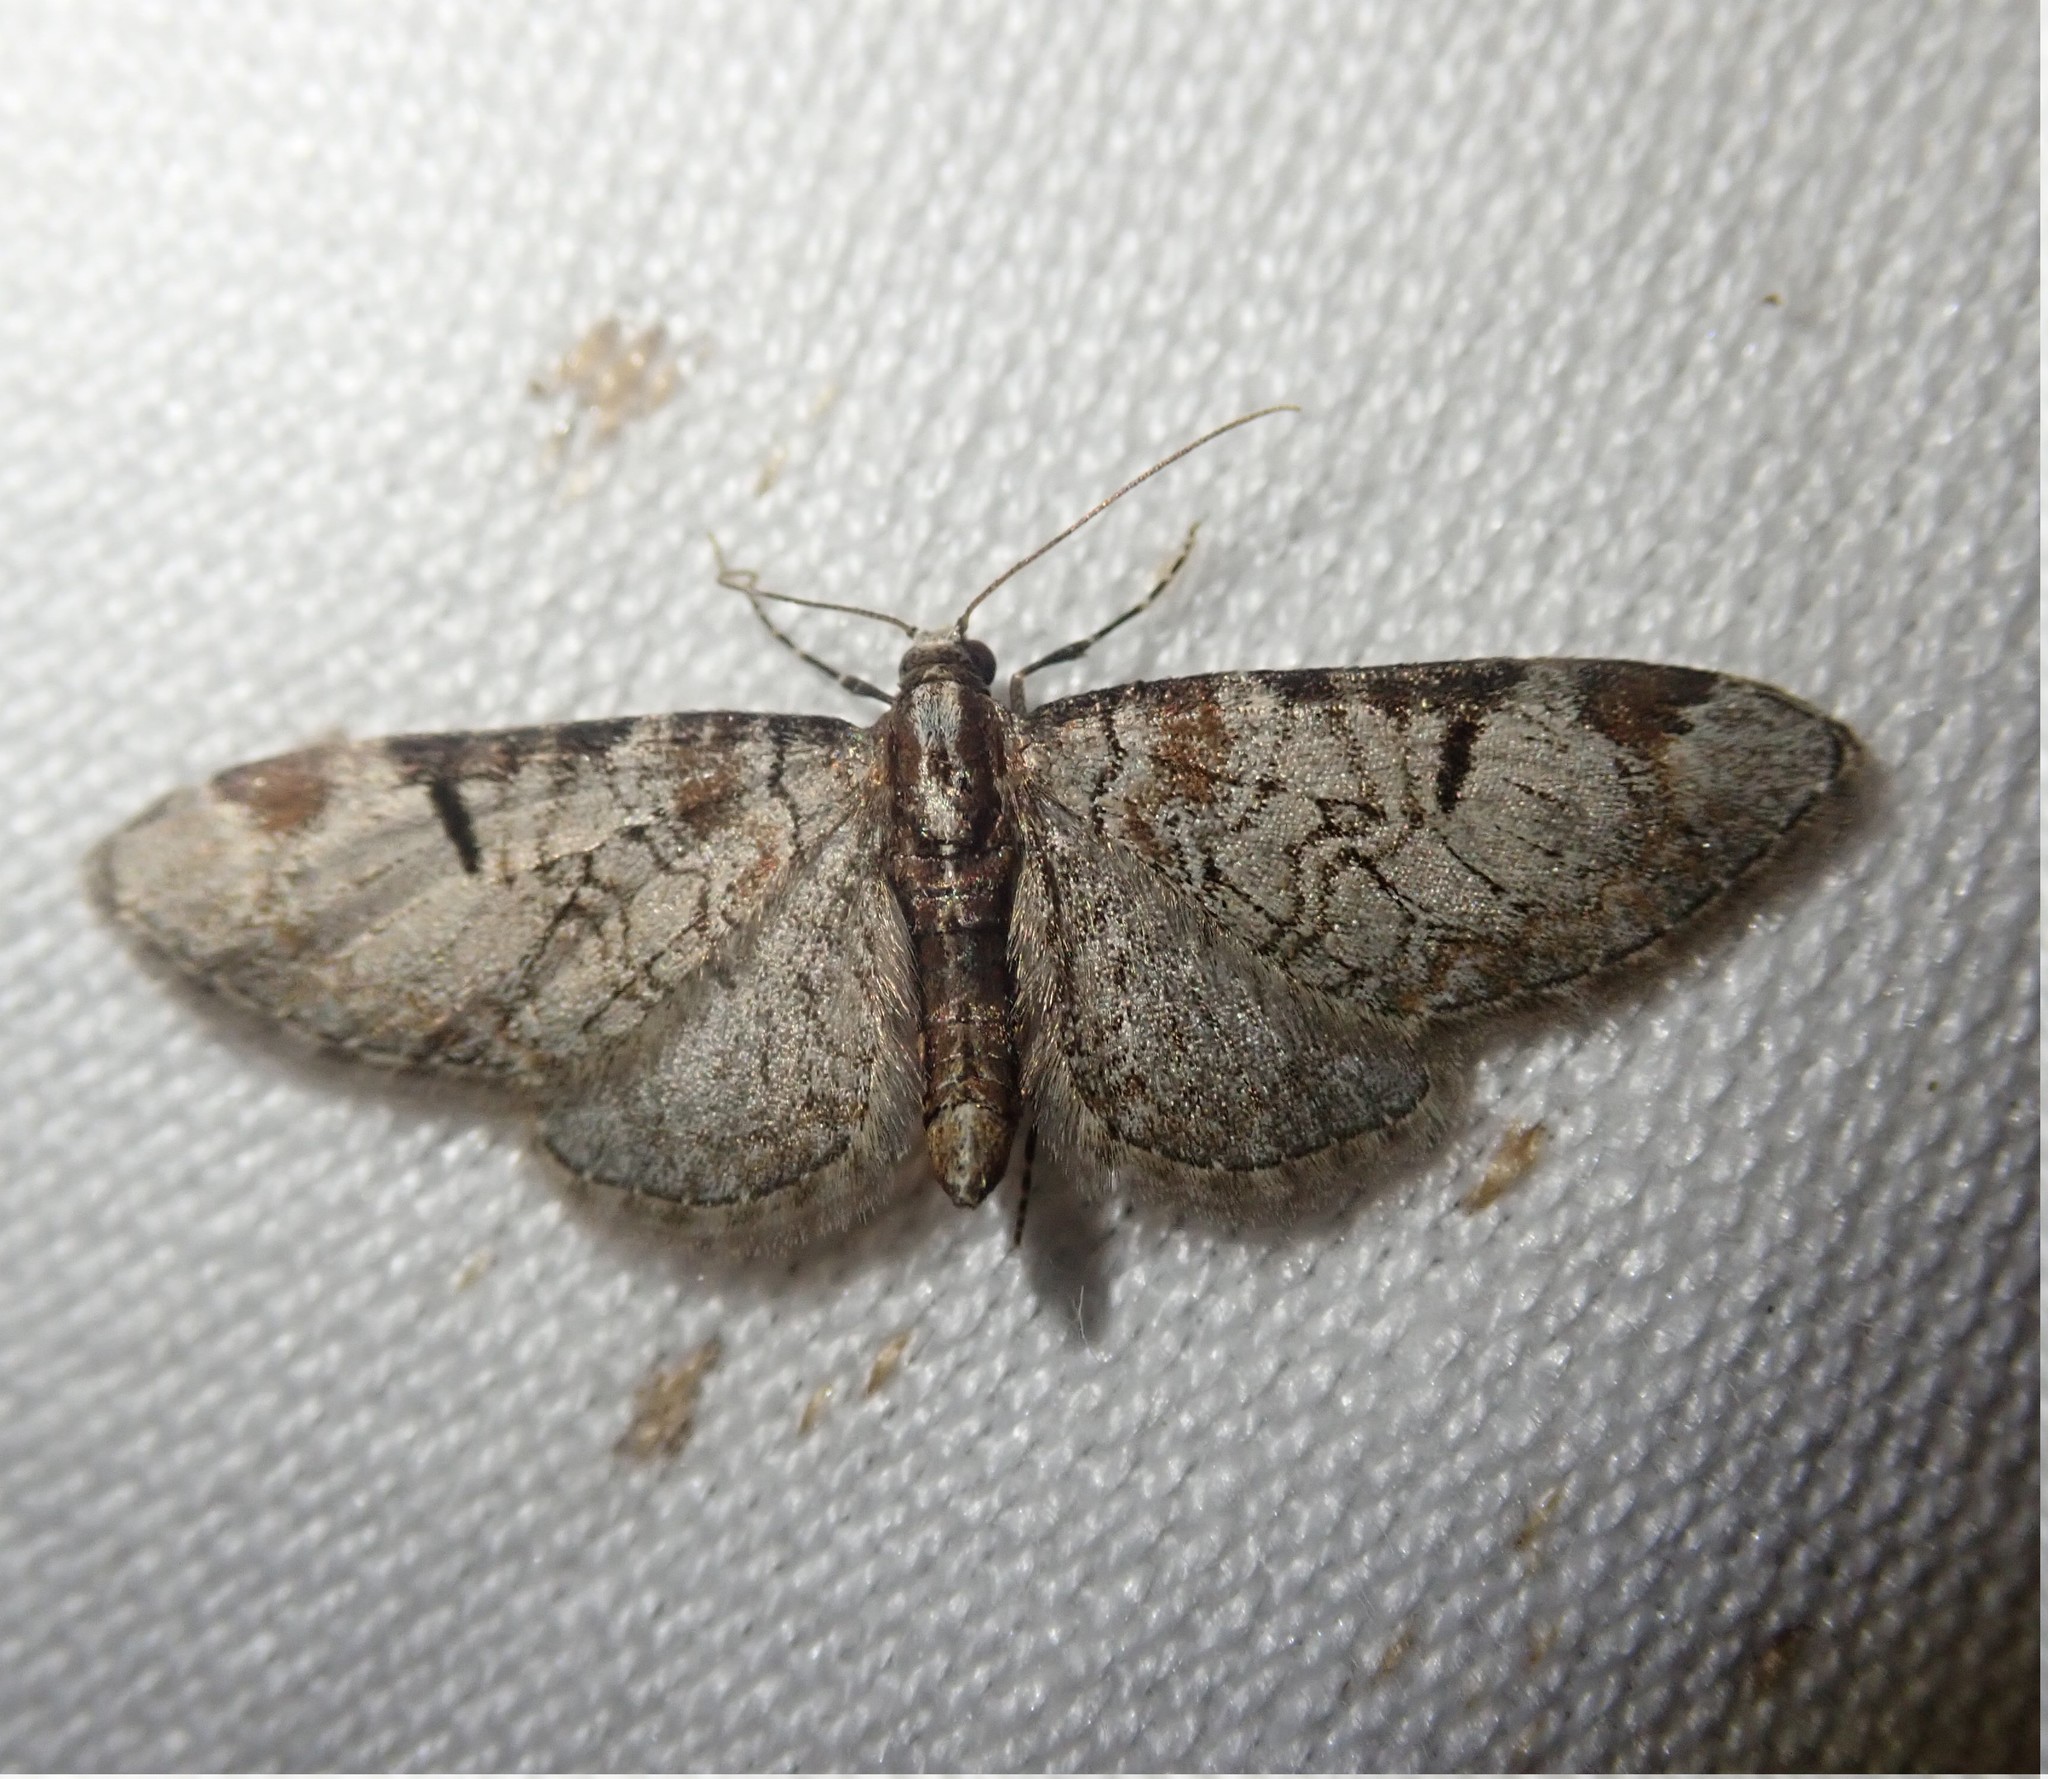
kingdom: Animalia
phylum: Arthropoda
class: Insecta
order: Lepidoptera
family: Geometridae
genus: Eupithecia
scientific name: Eupithecia insigniata
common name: Pinion-spotted pug
